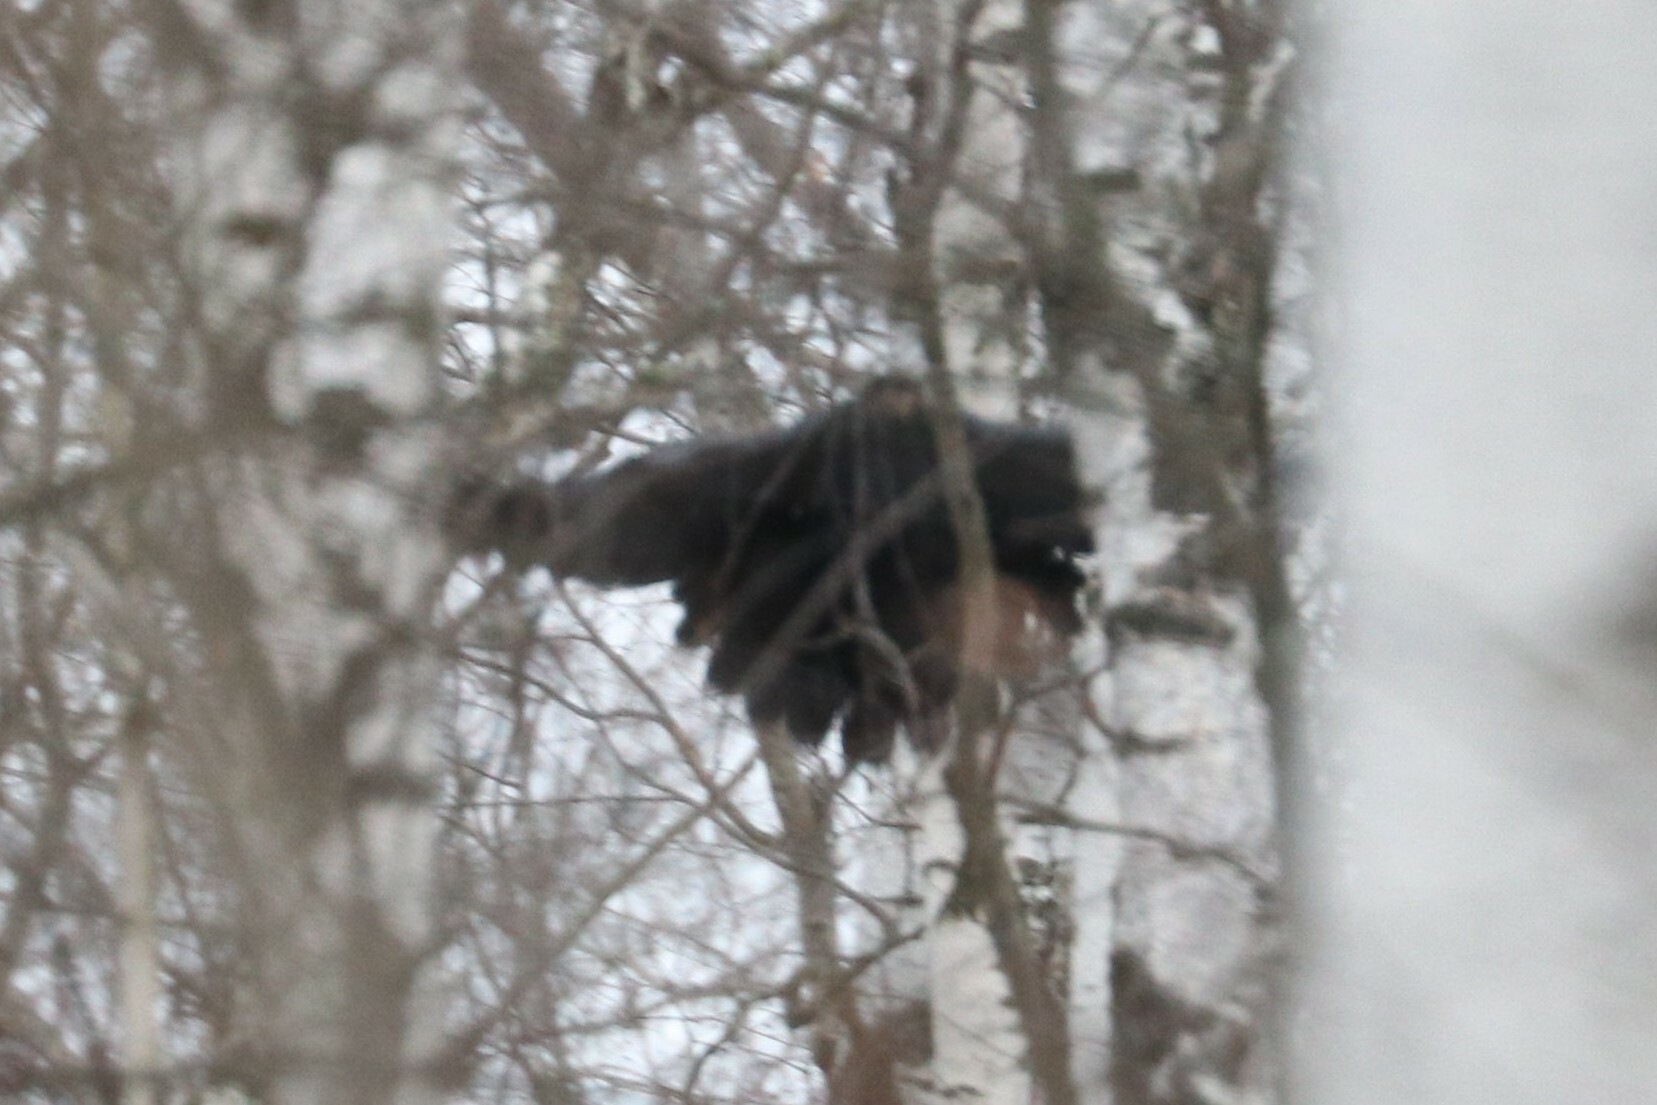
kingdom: Animalia
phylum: Chordata
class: Aves
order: Passeriformes
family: Corvidae
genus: Corvus
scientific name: Corvus corax
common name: Common raven
